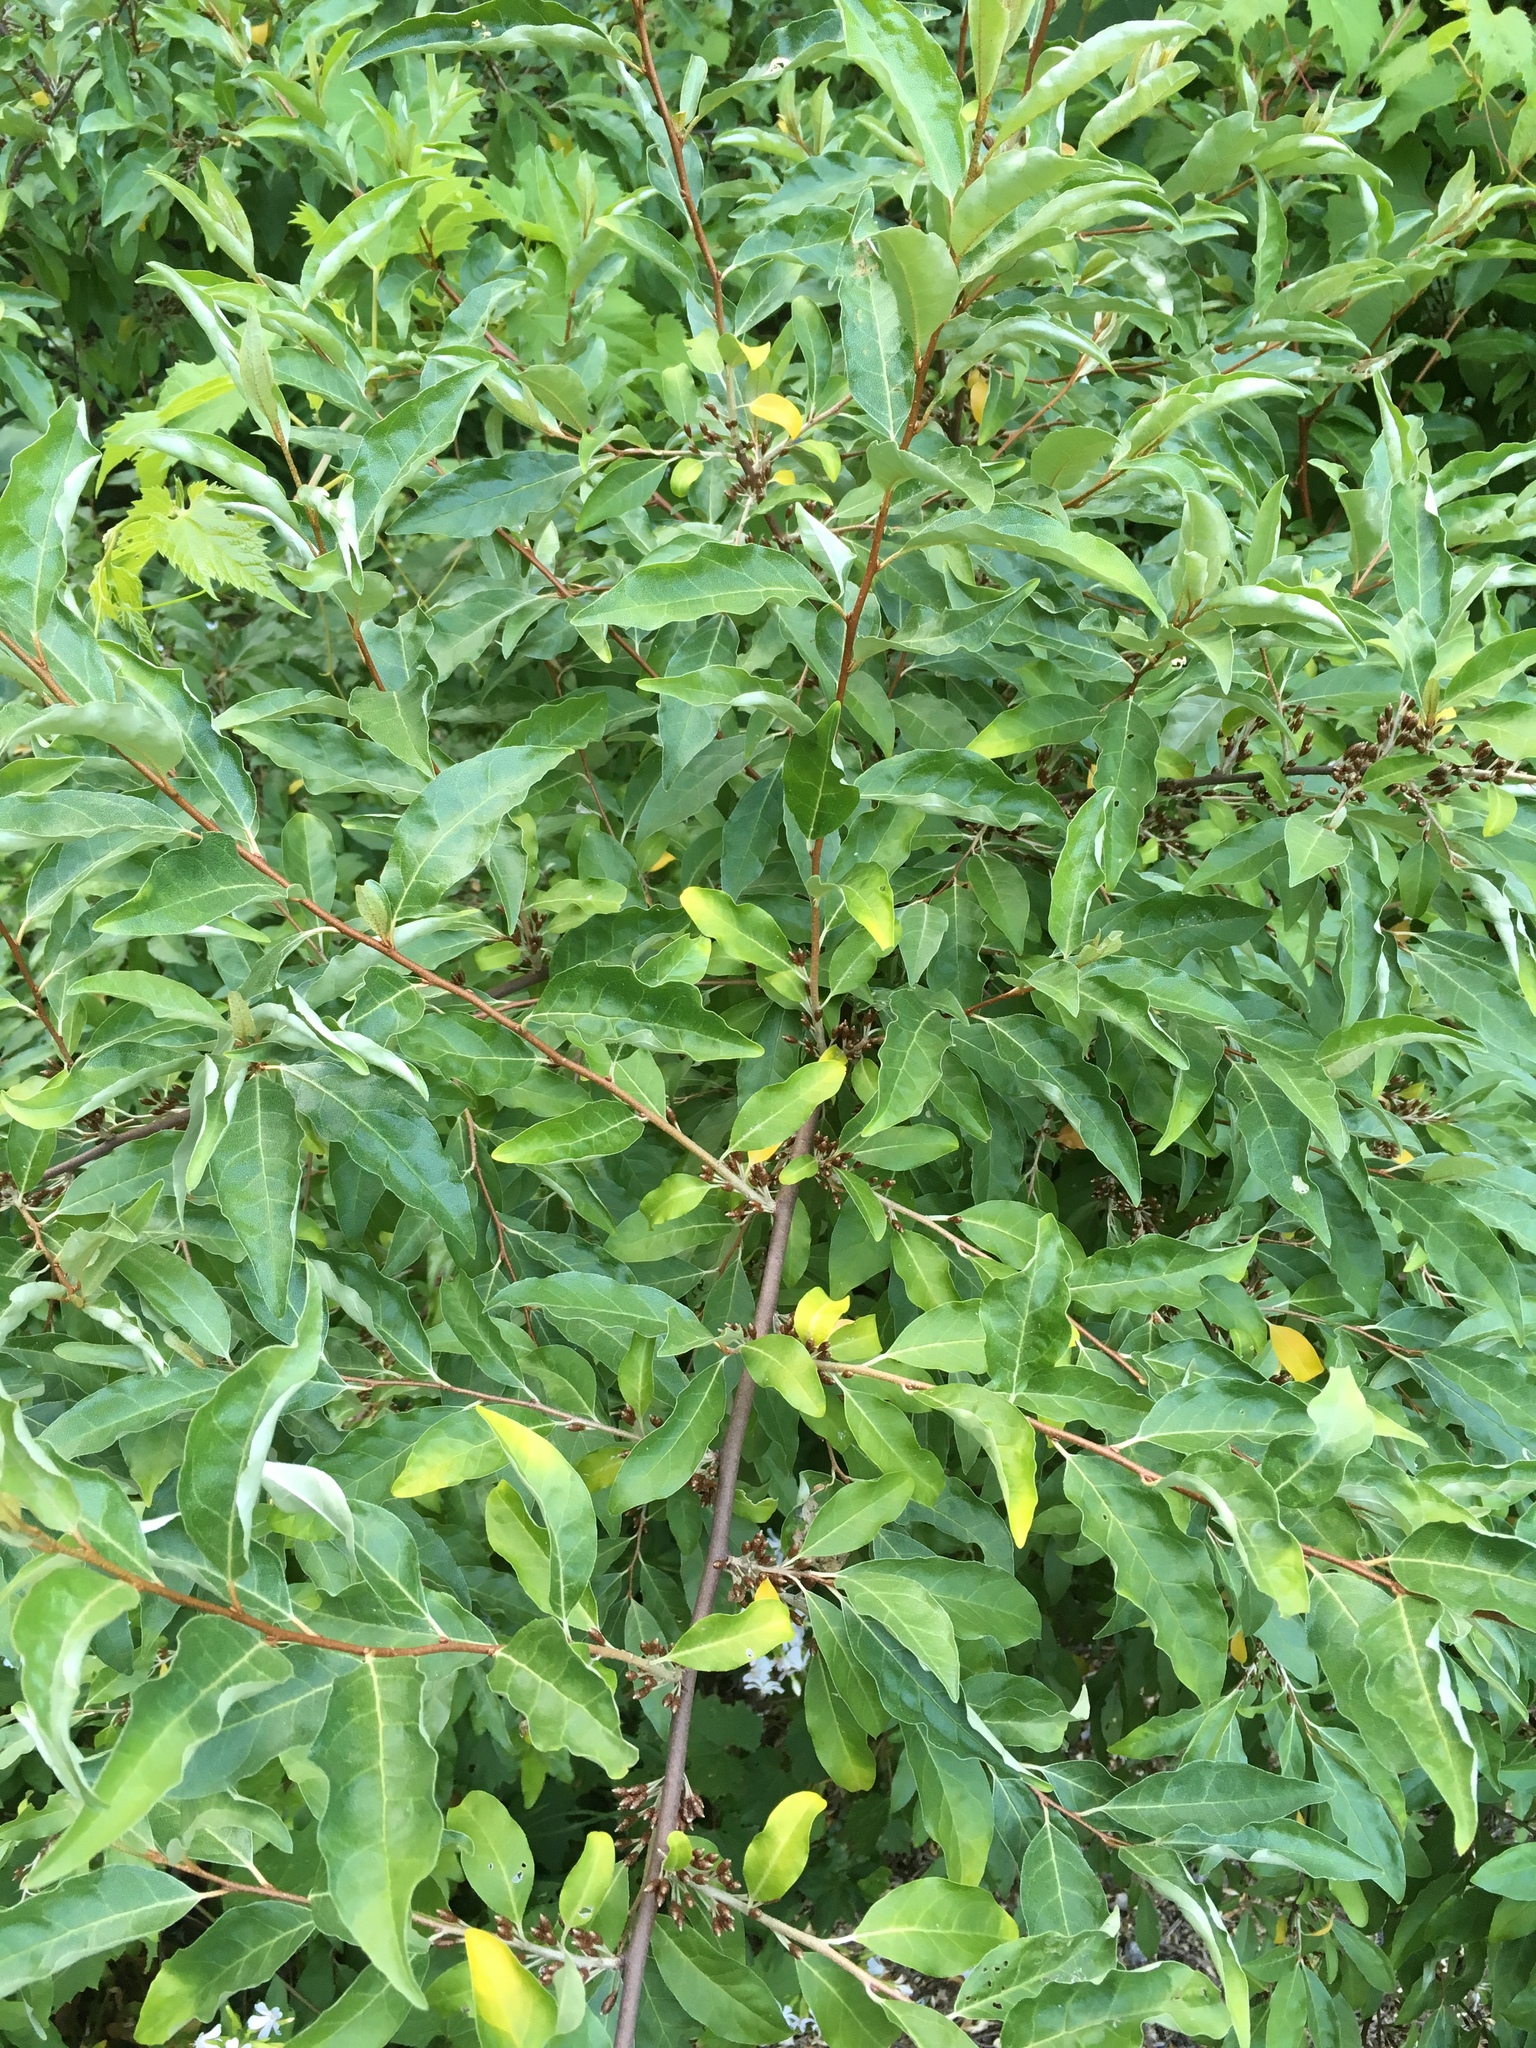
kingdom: Plantae
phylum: Tracheophyta
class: Magnoliopsida
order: Rosales
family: Elaeagnaceae
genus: Elaeagnus
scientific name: Elaeagnus umbellata
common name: Autumn olive
